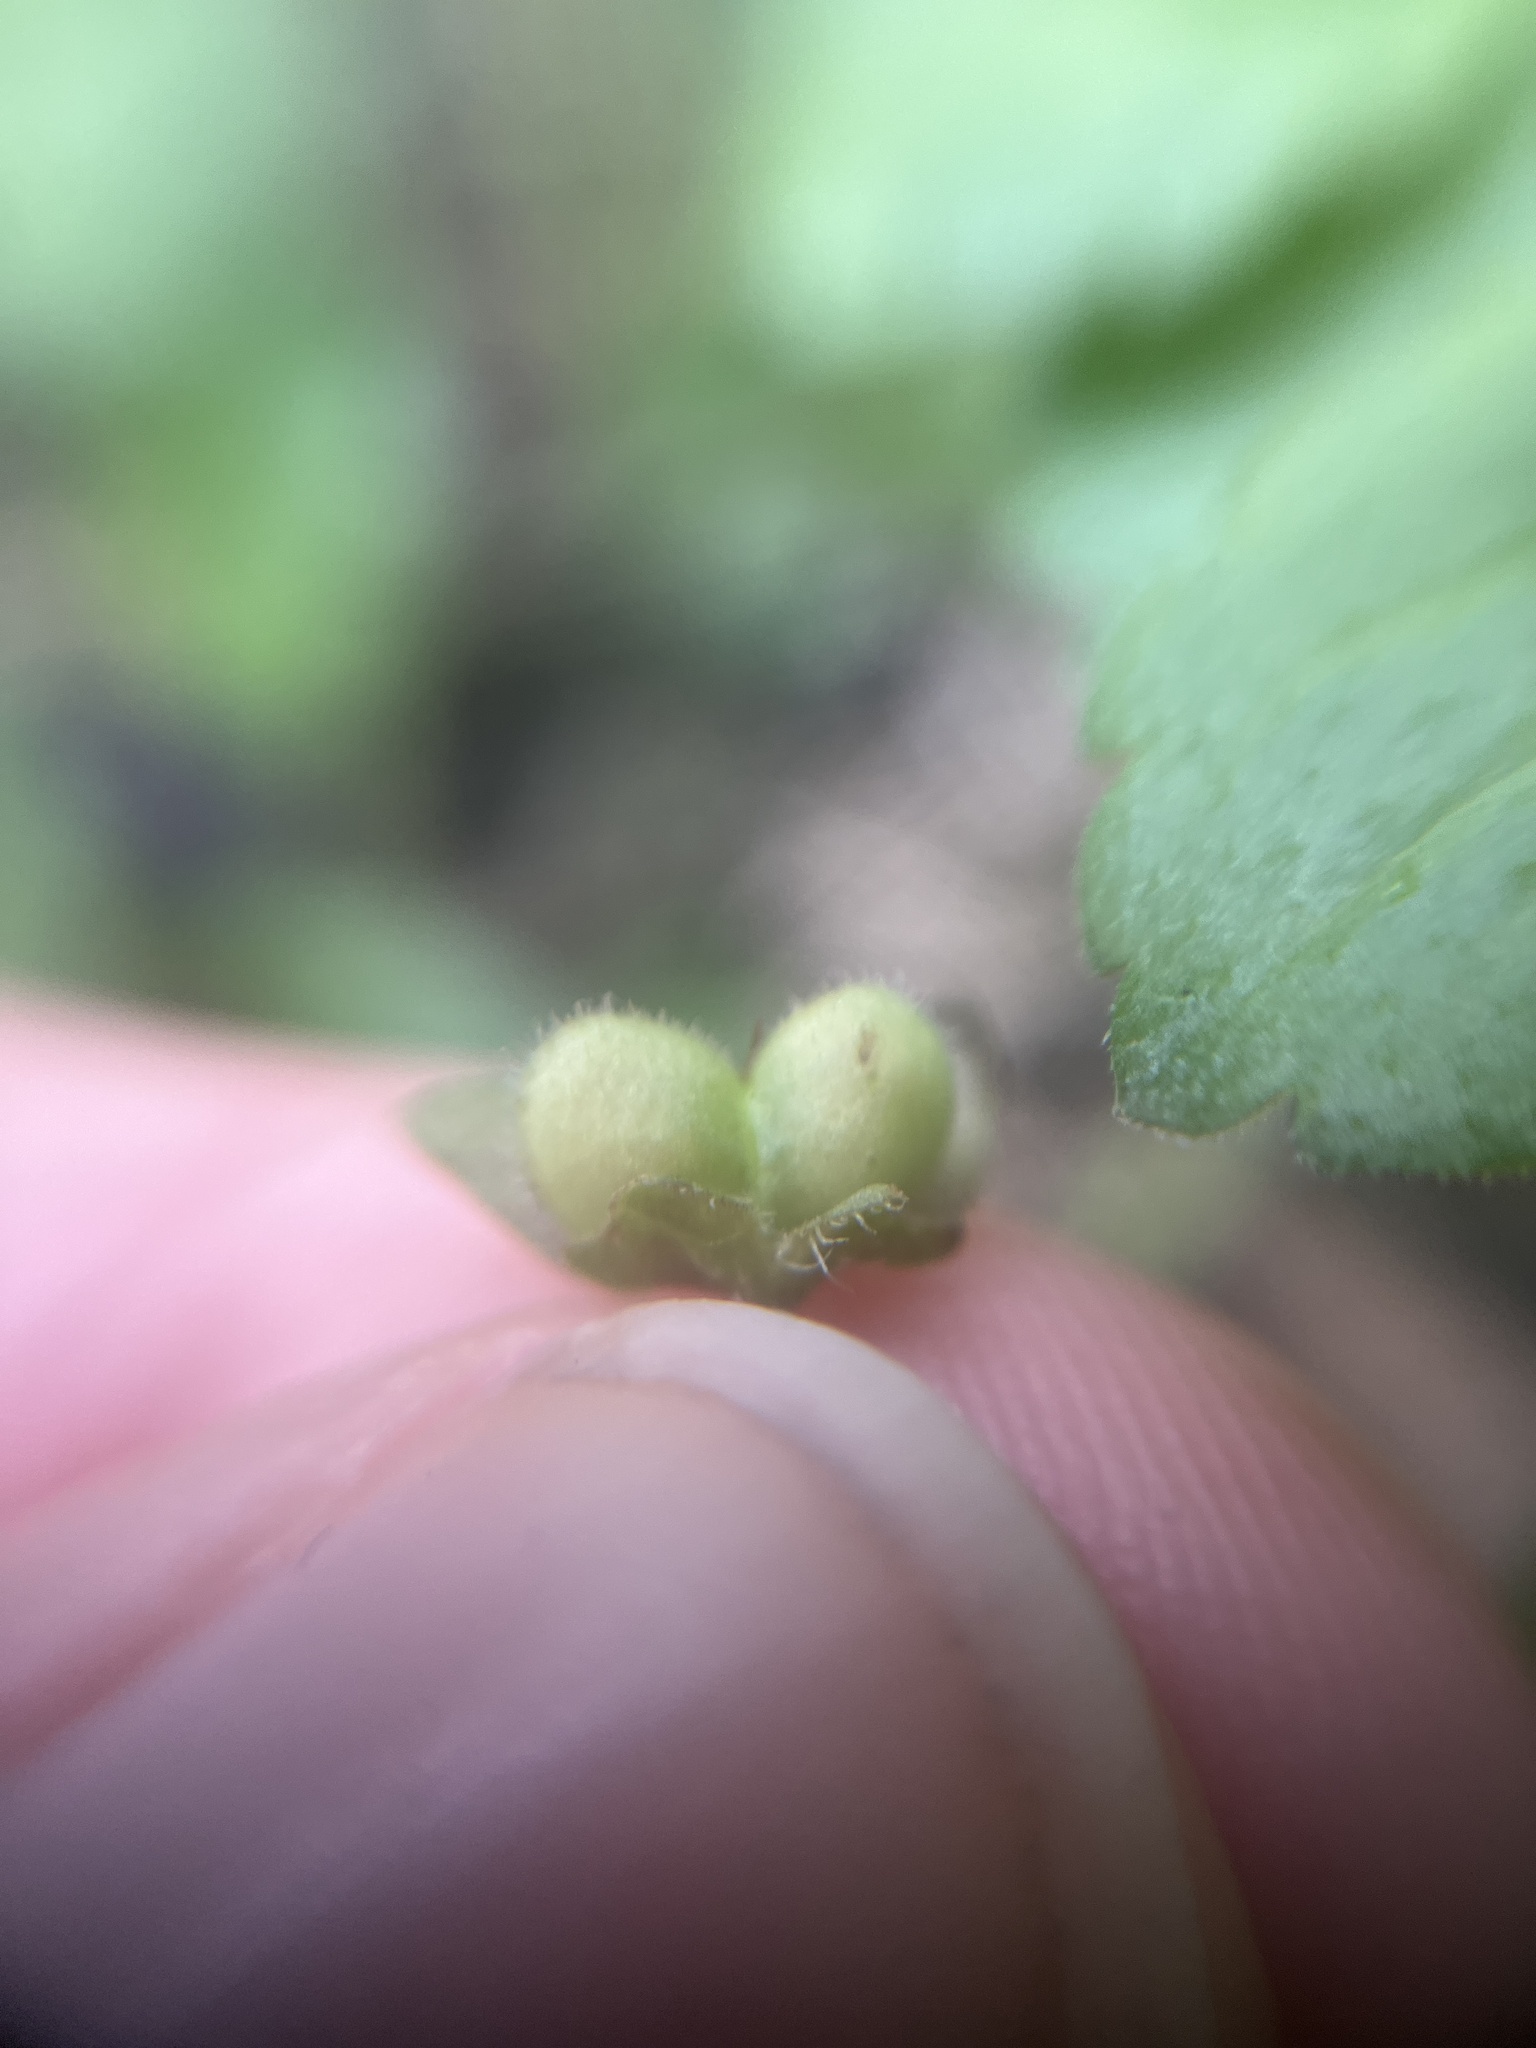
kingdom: Plantae
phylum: Tracheophyta
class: Magnoliopsida
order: Lamiales
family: Plantaginaceae
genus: Veronica
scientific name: Veronica persica
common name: Common field-speedwell
